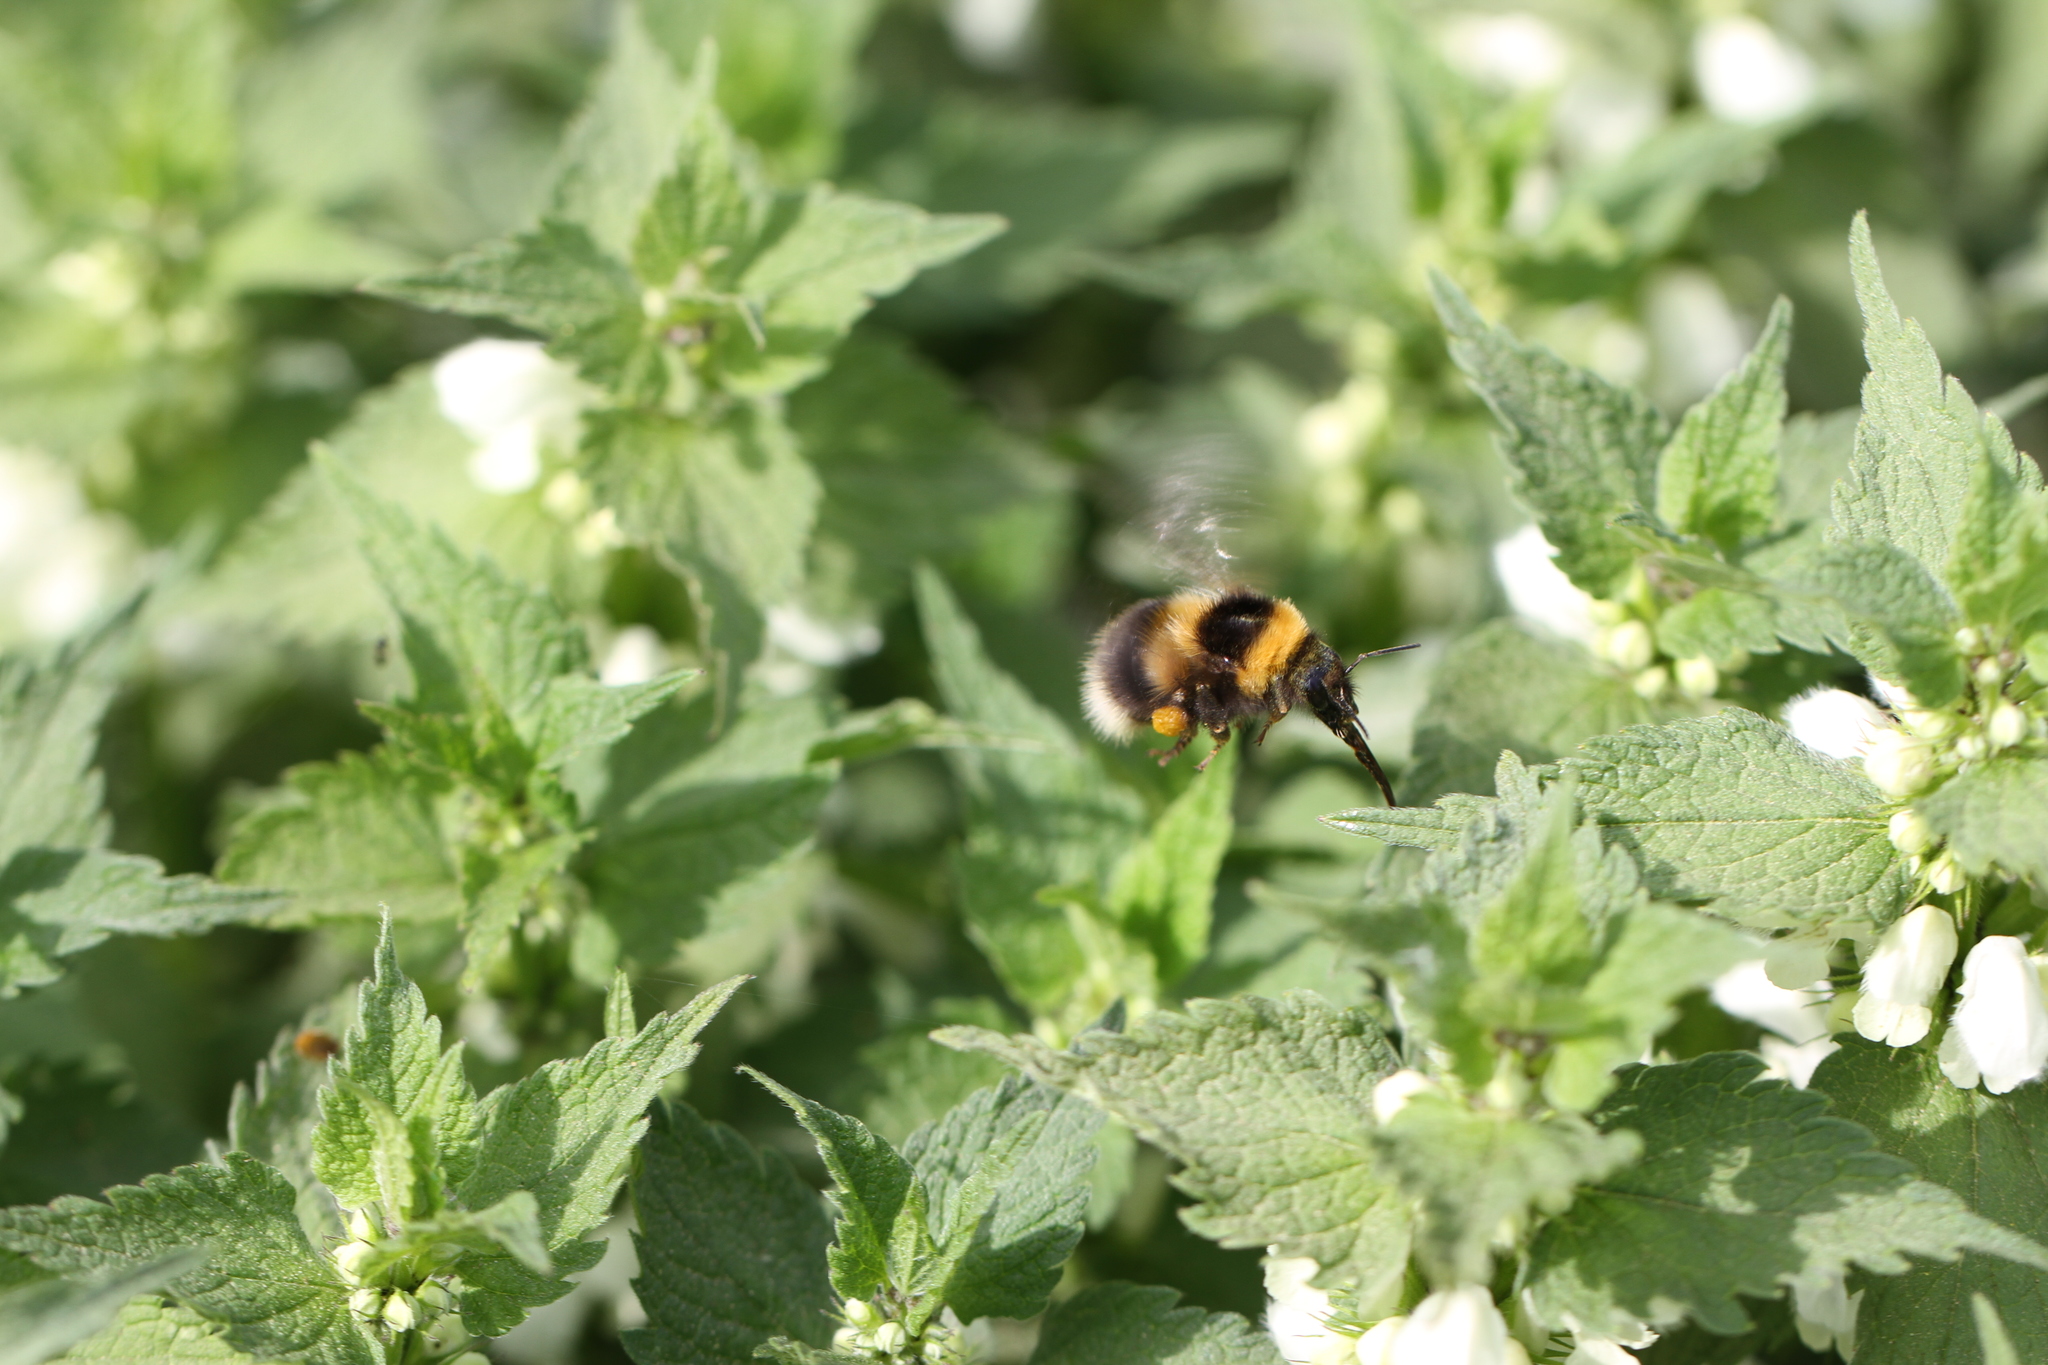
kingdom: Animalia
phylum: Arthropoda
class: Insecta
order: Hymenoptera
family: Apidae
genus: Bombus
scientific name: Bombus hortorum
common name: Garden bumblebee
